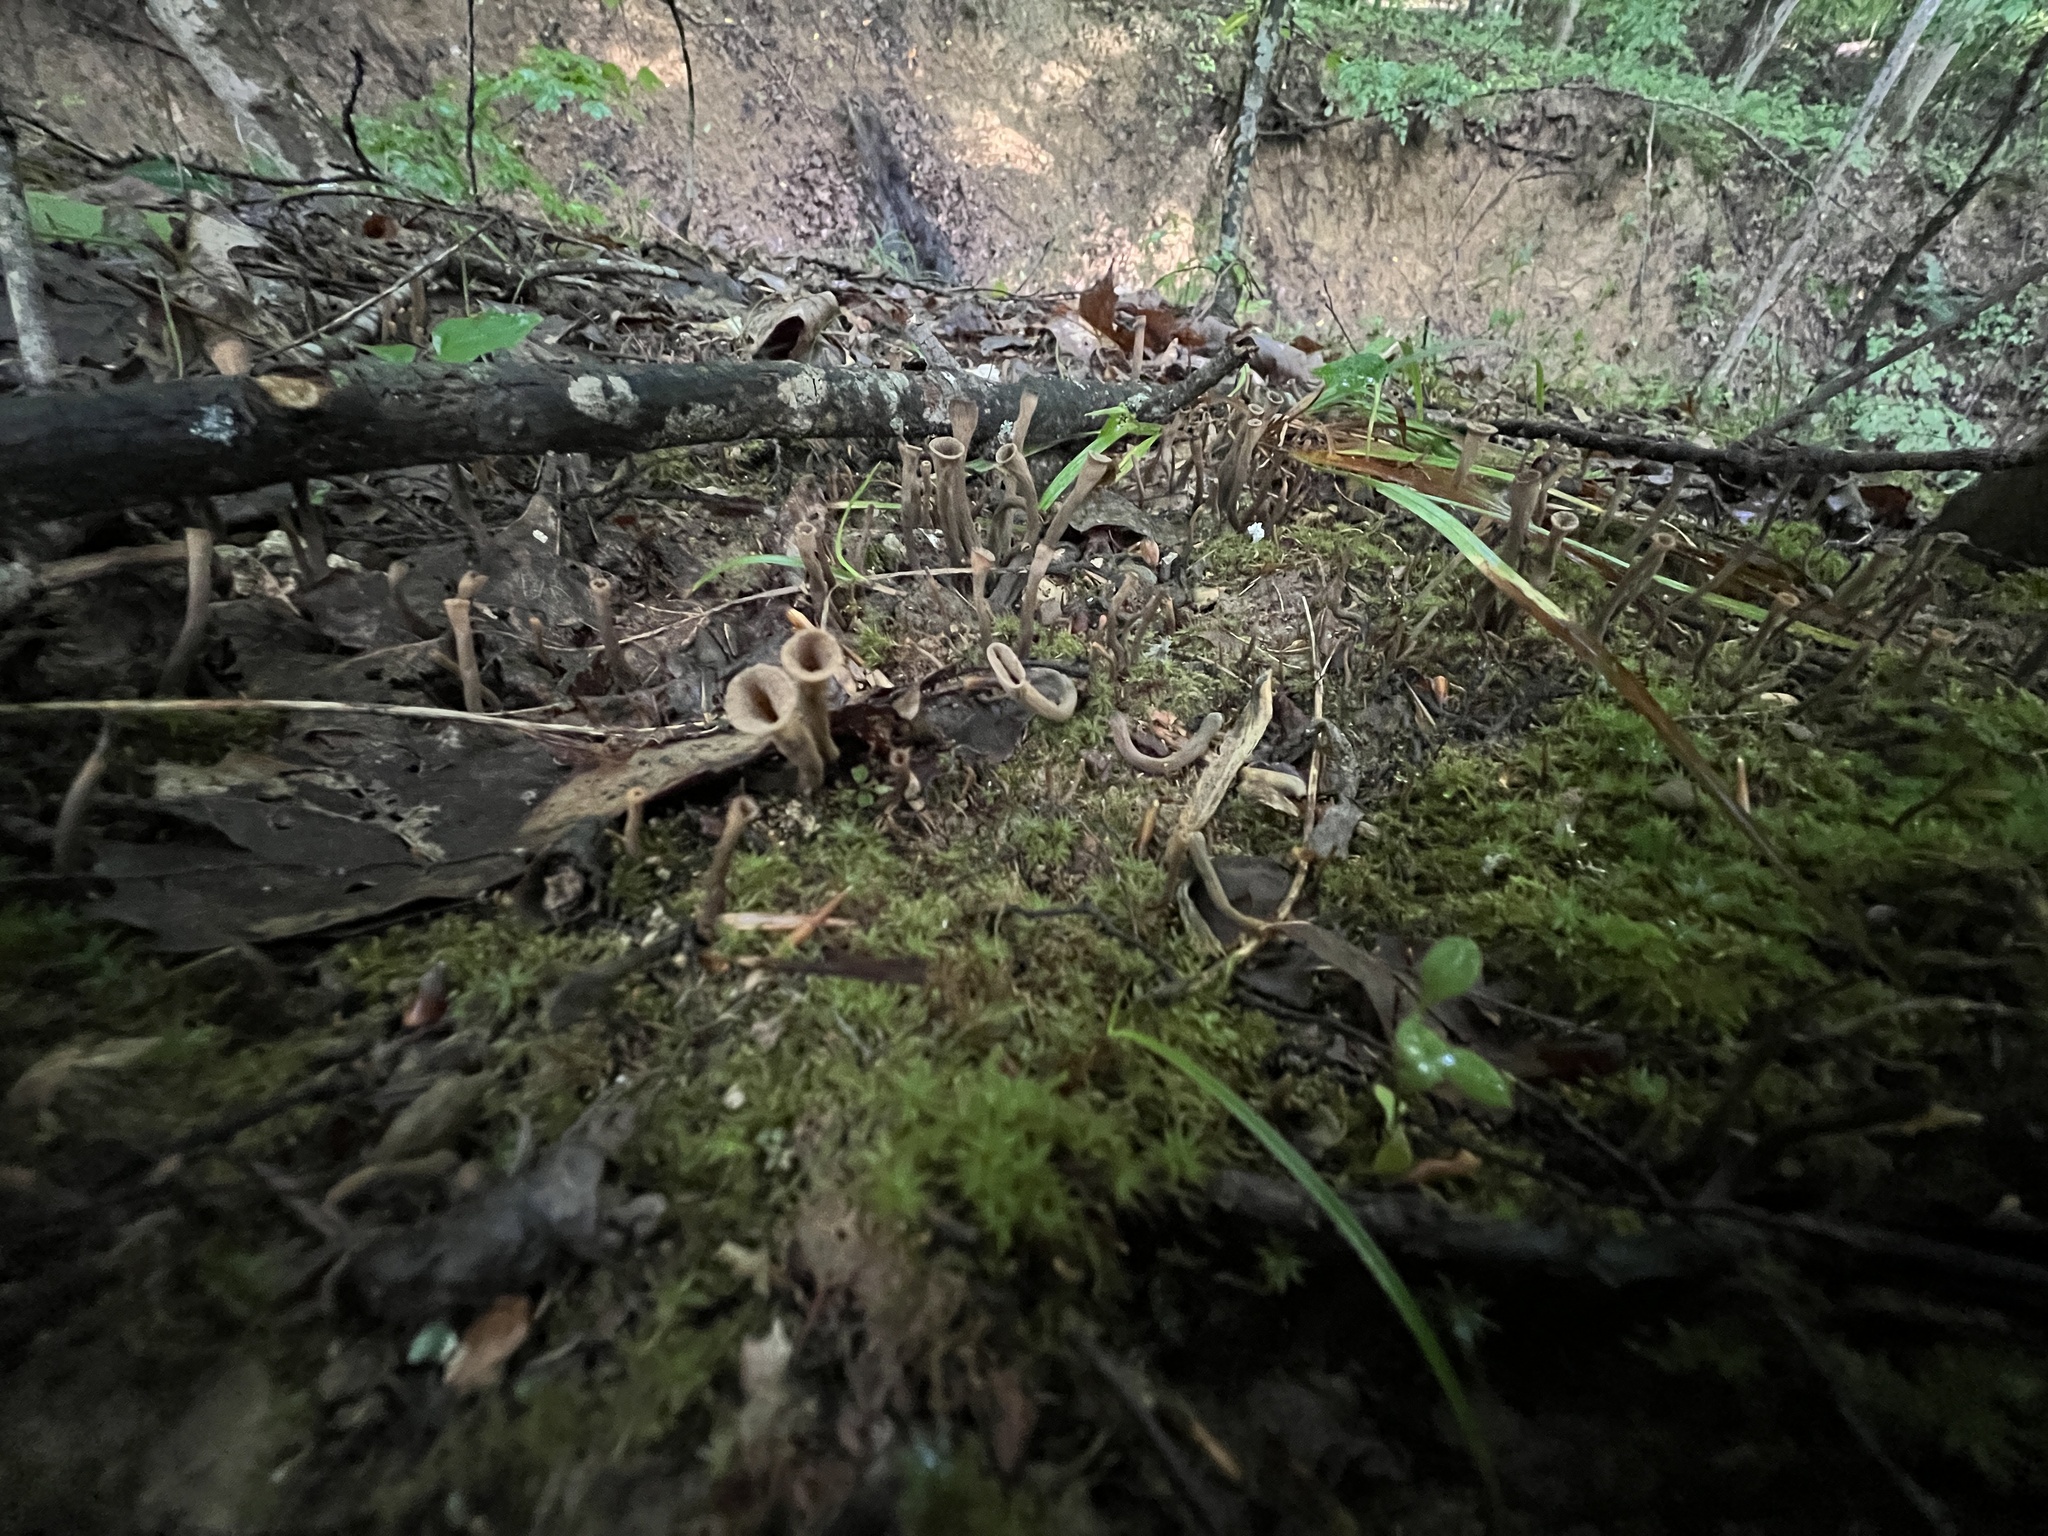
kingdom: Fungi
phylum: Basidiomycota
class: Agaricomycetes
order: Cantharellales
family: Hydnaceae
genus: Craterellus
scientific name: Craterellus cornucopioides
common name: Horn of plenty
